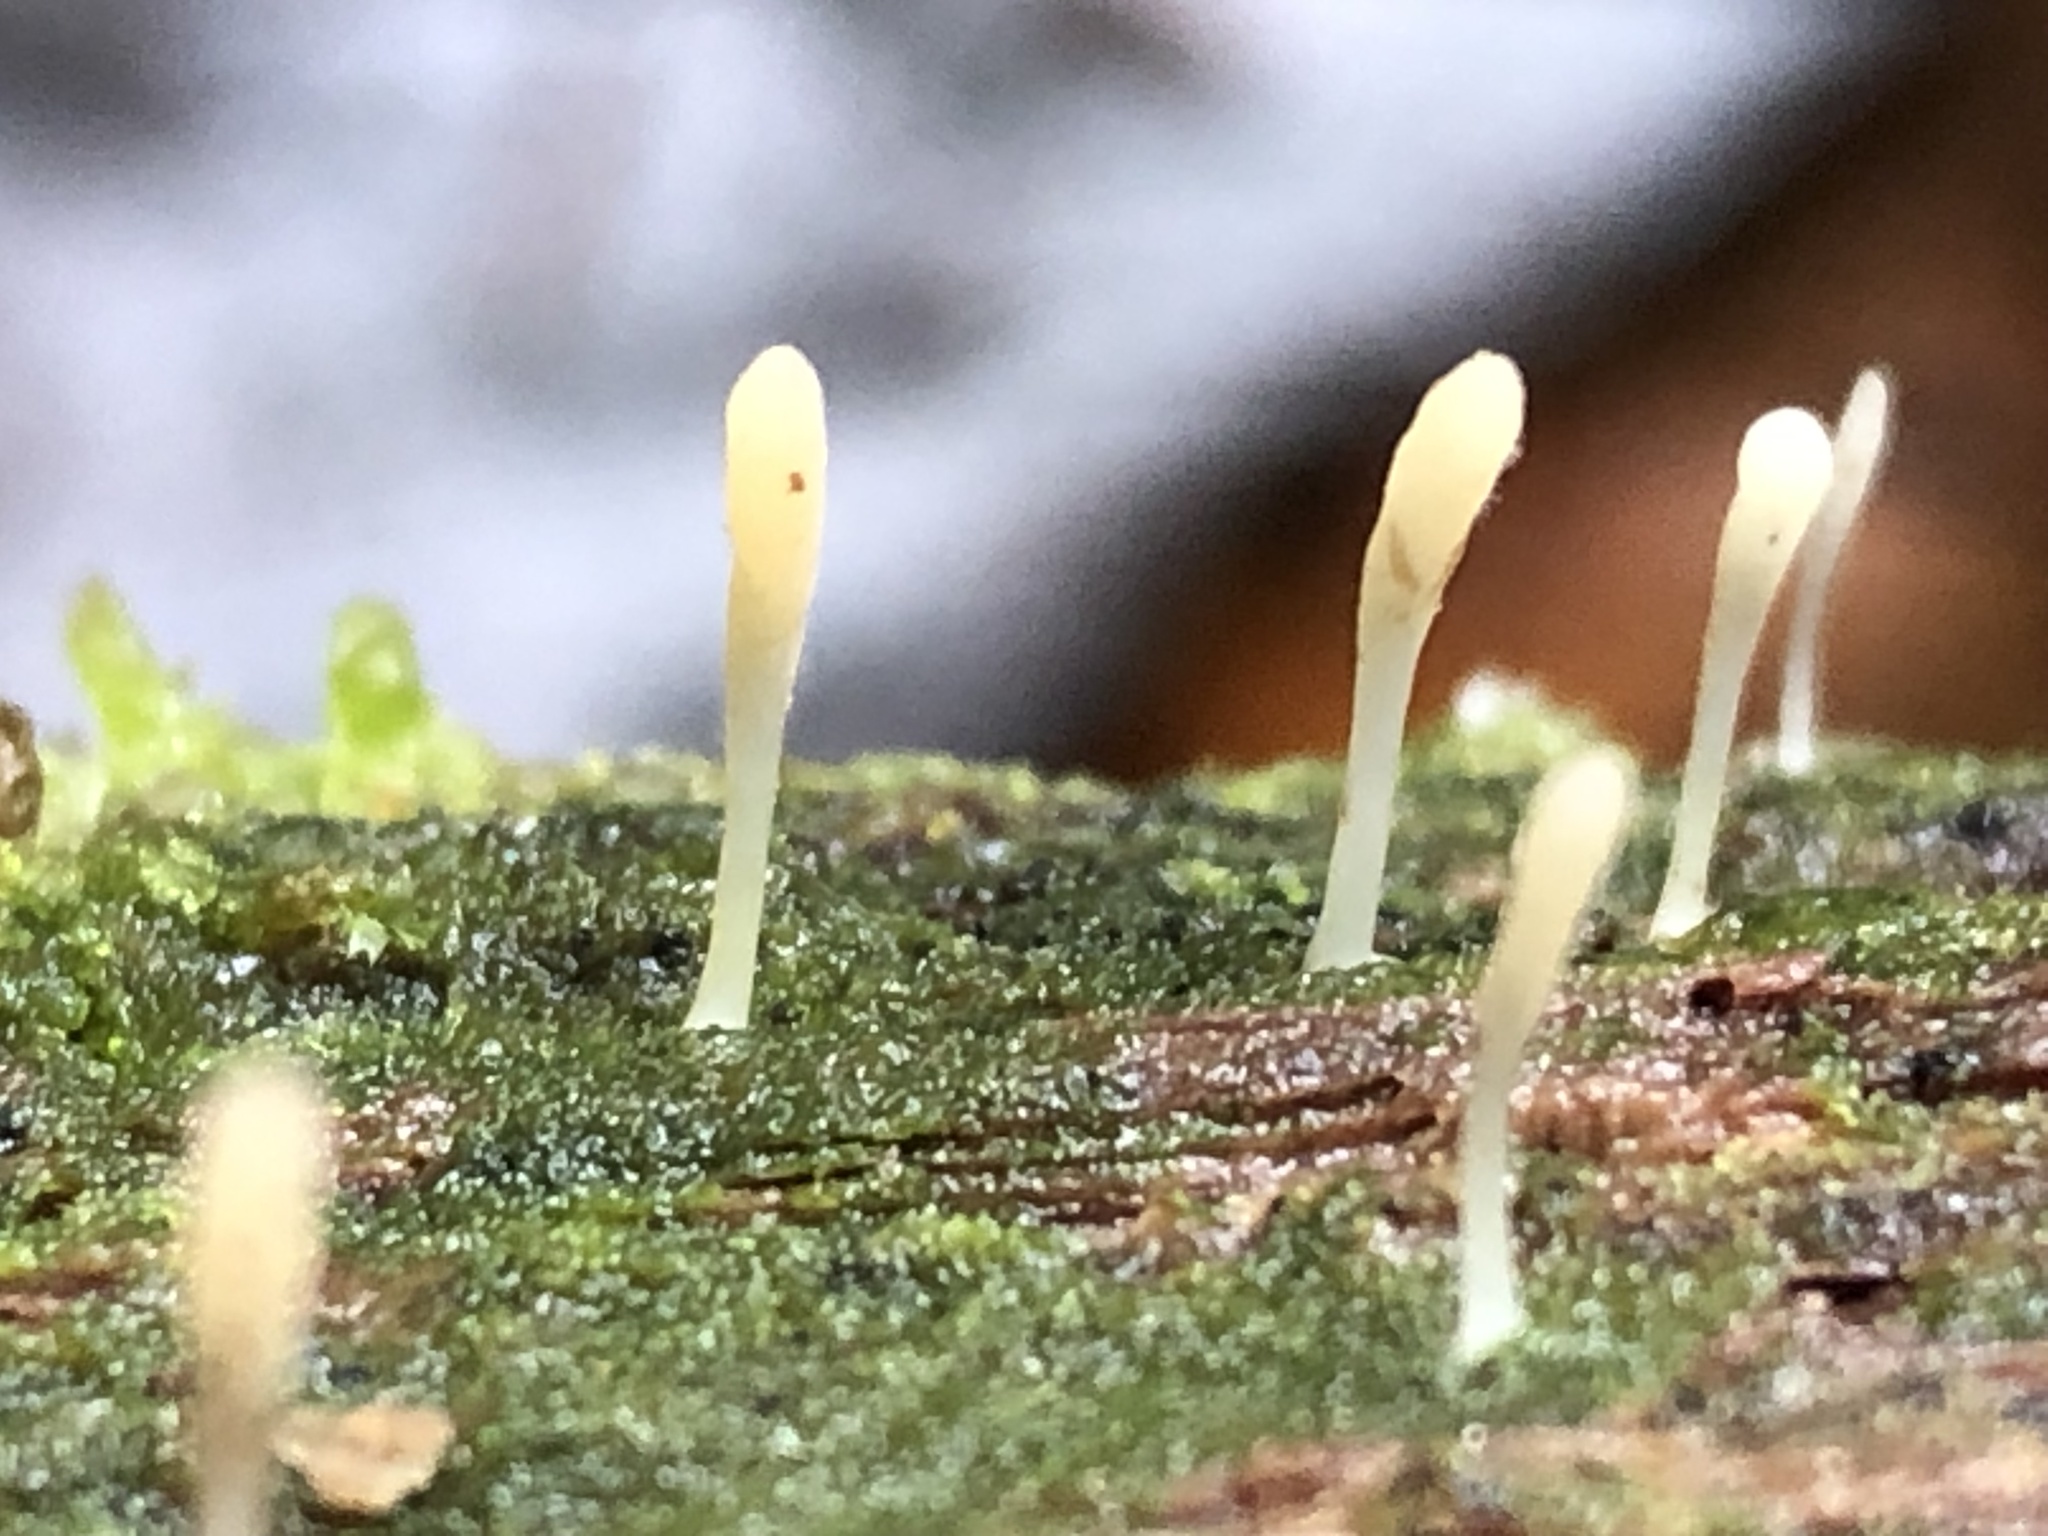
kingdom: Fungi
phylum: Basidiomycota
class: Agaricomycetes
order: Cantharellales
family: Hydnaceae
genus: Multiclavula
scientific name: Multiclavula mucida
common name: White green-algae coral
